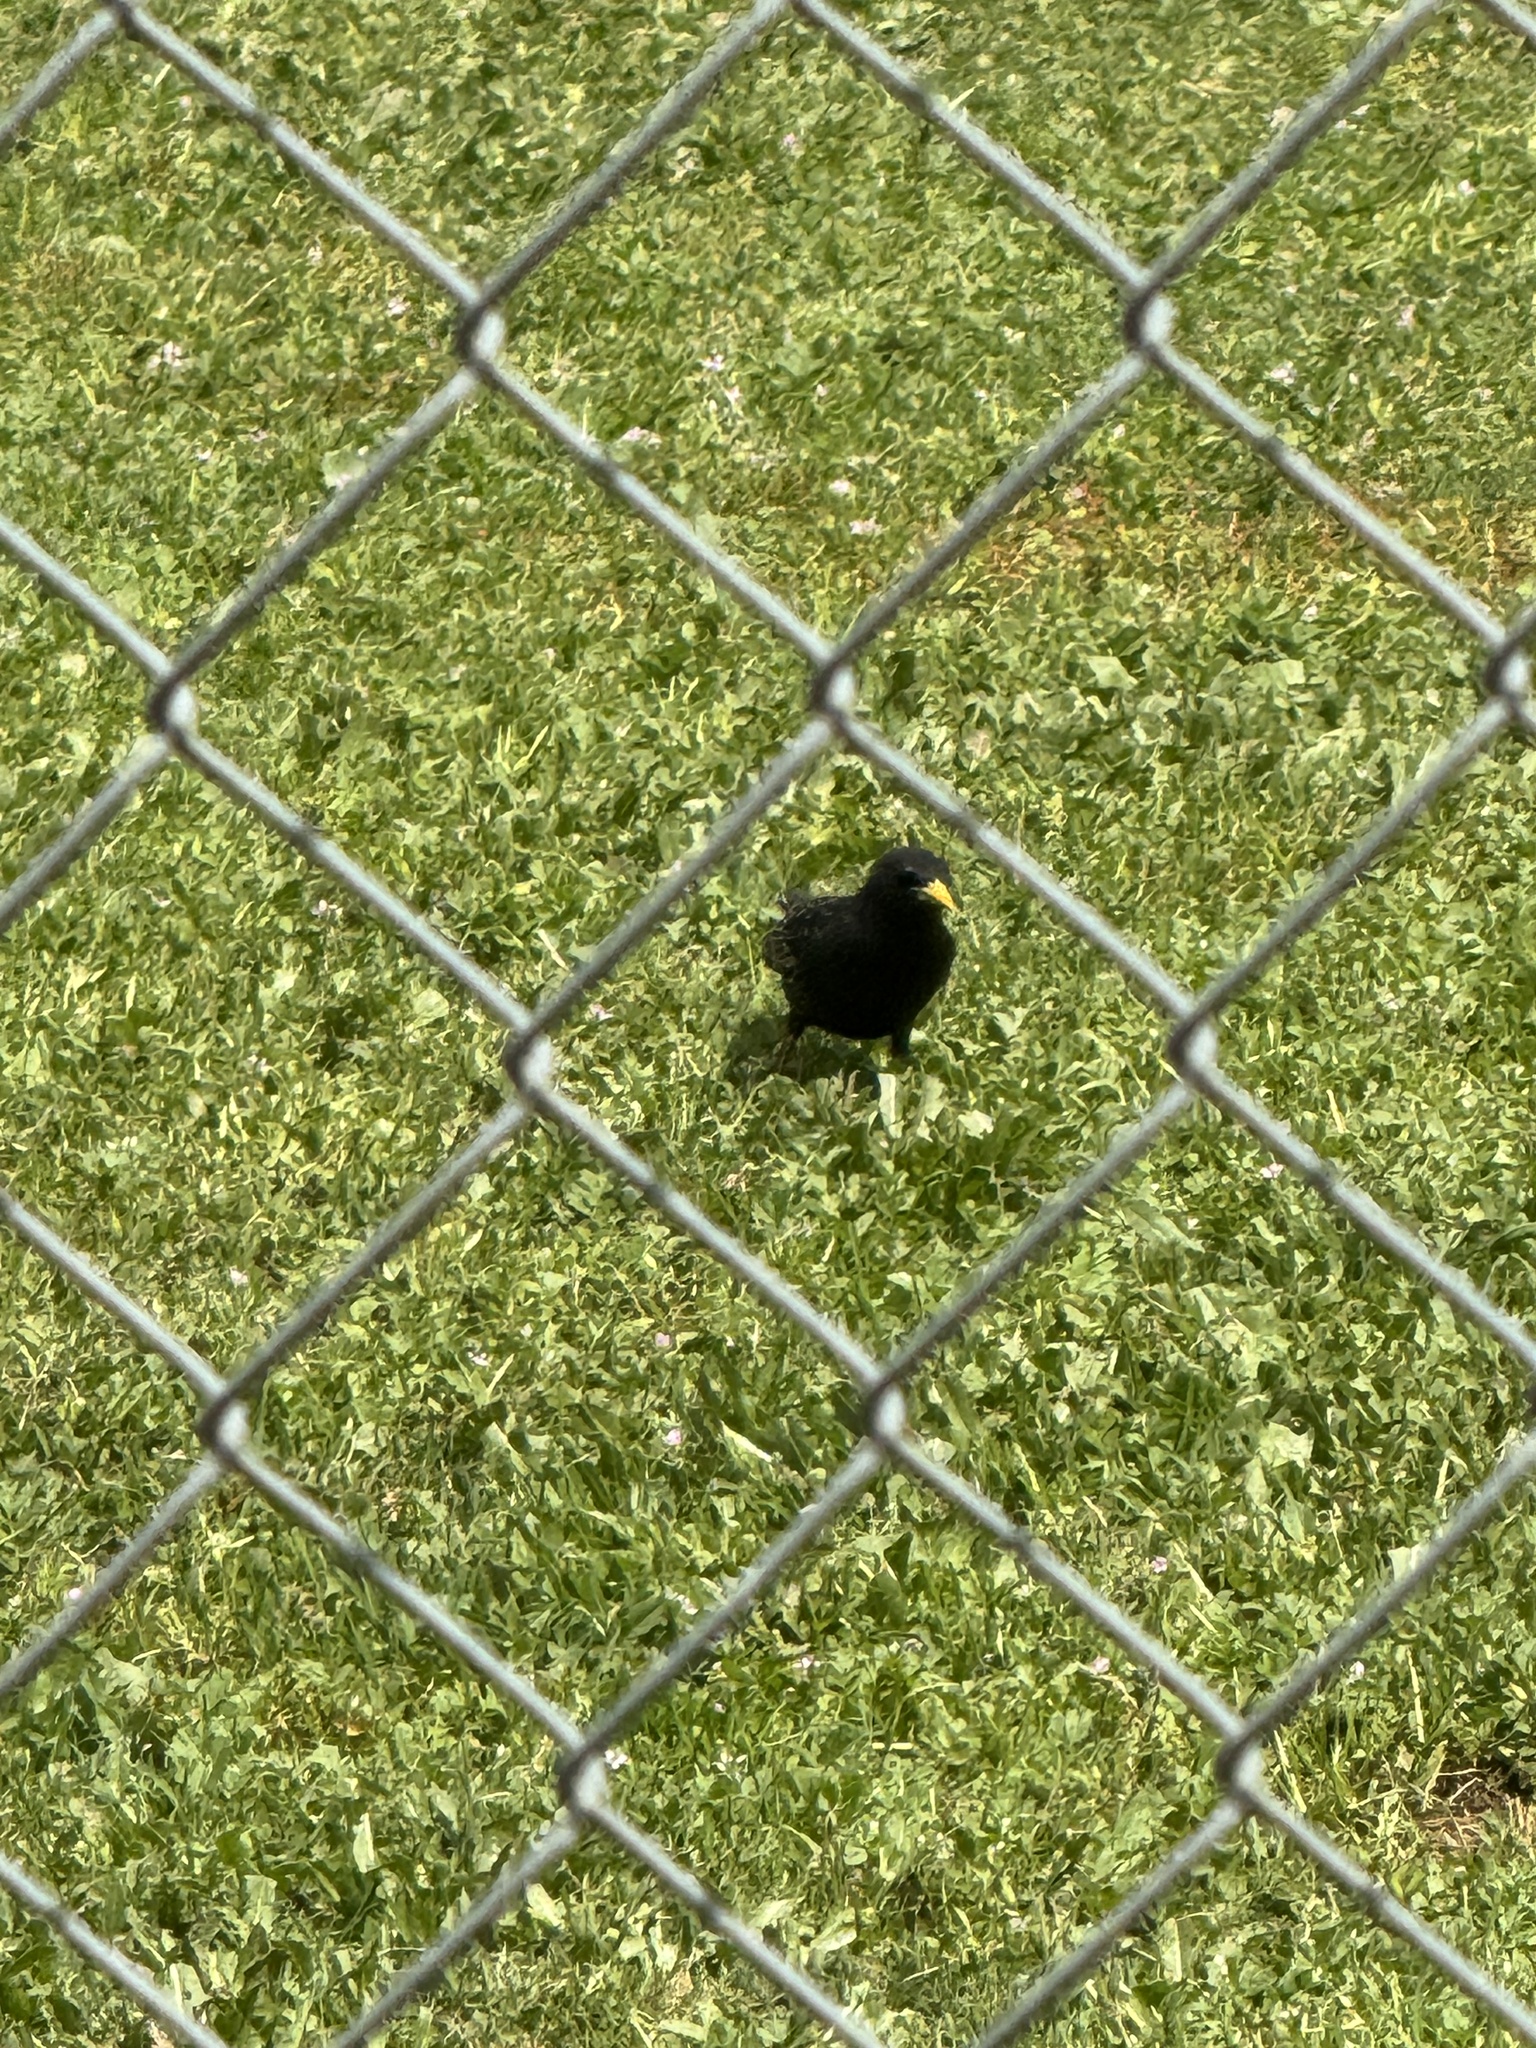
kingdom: Animalia
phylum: Chordata
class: Aves
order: Passeriformes
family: Sturnidae
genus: Sturnus
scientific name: Sturnus vulgaris
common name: Common starling
